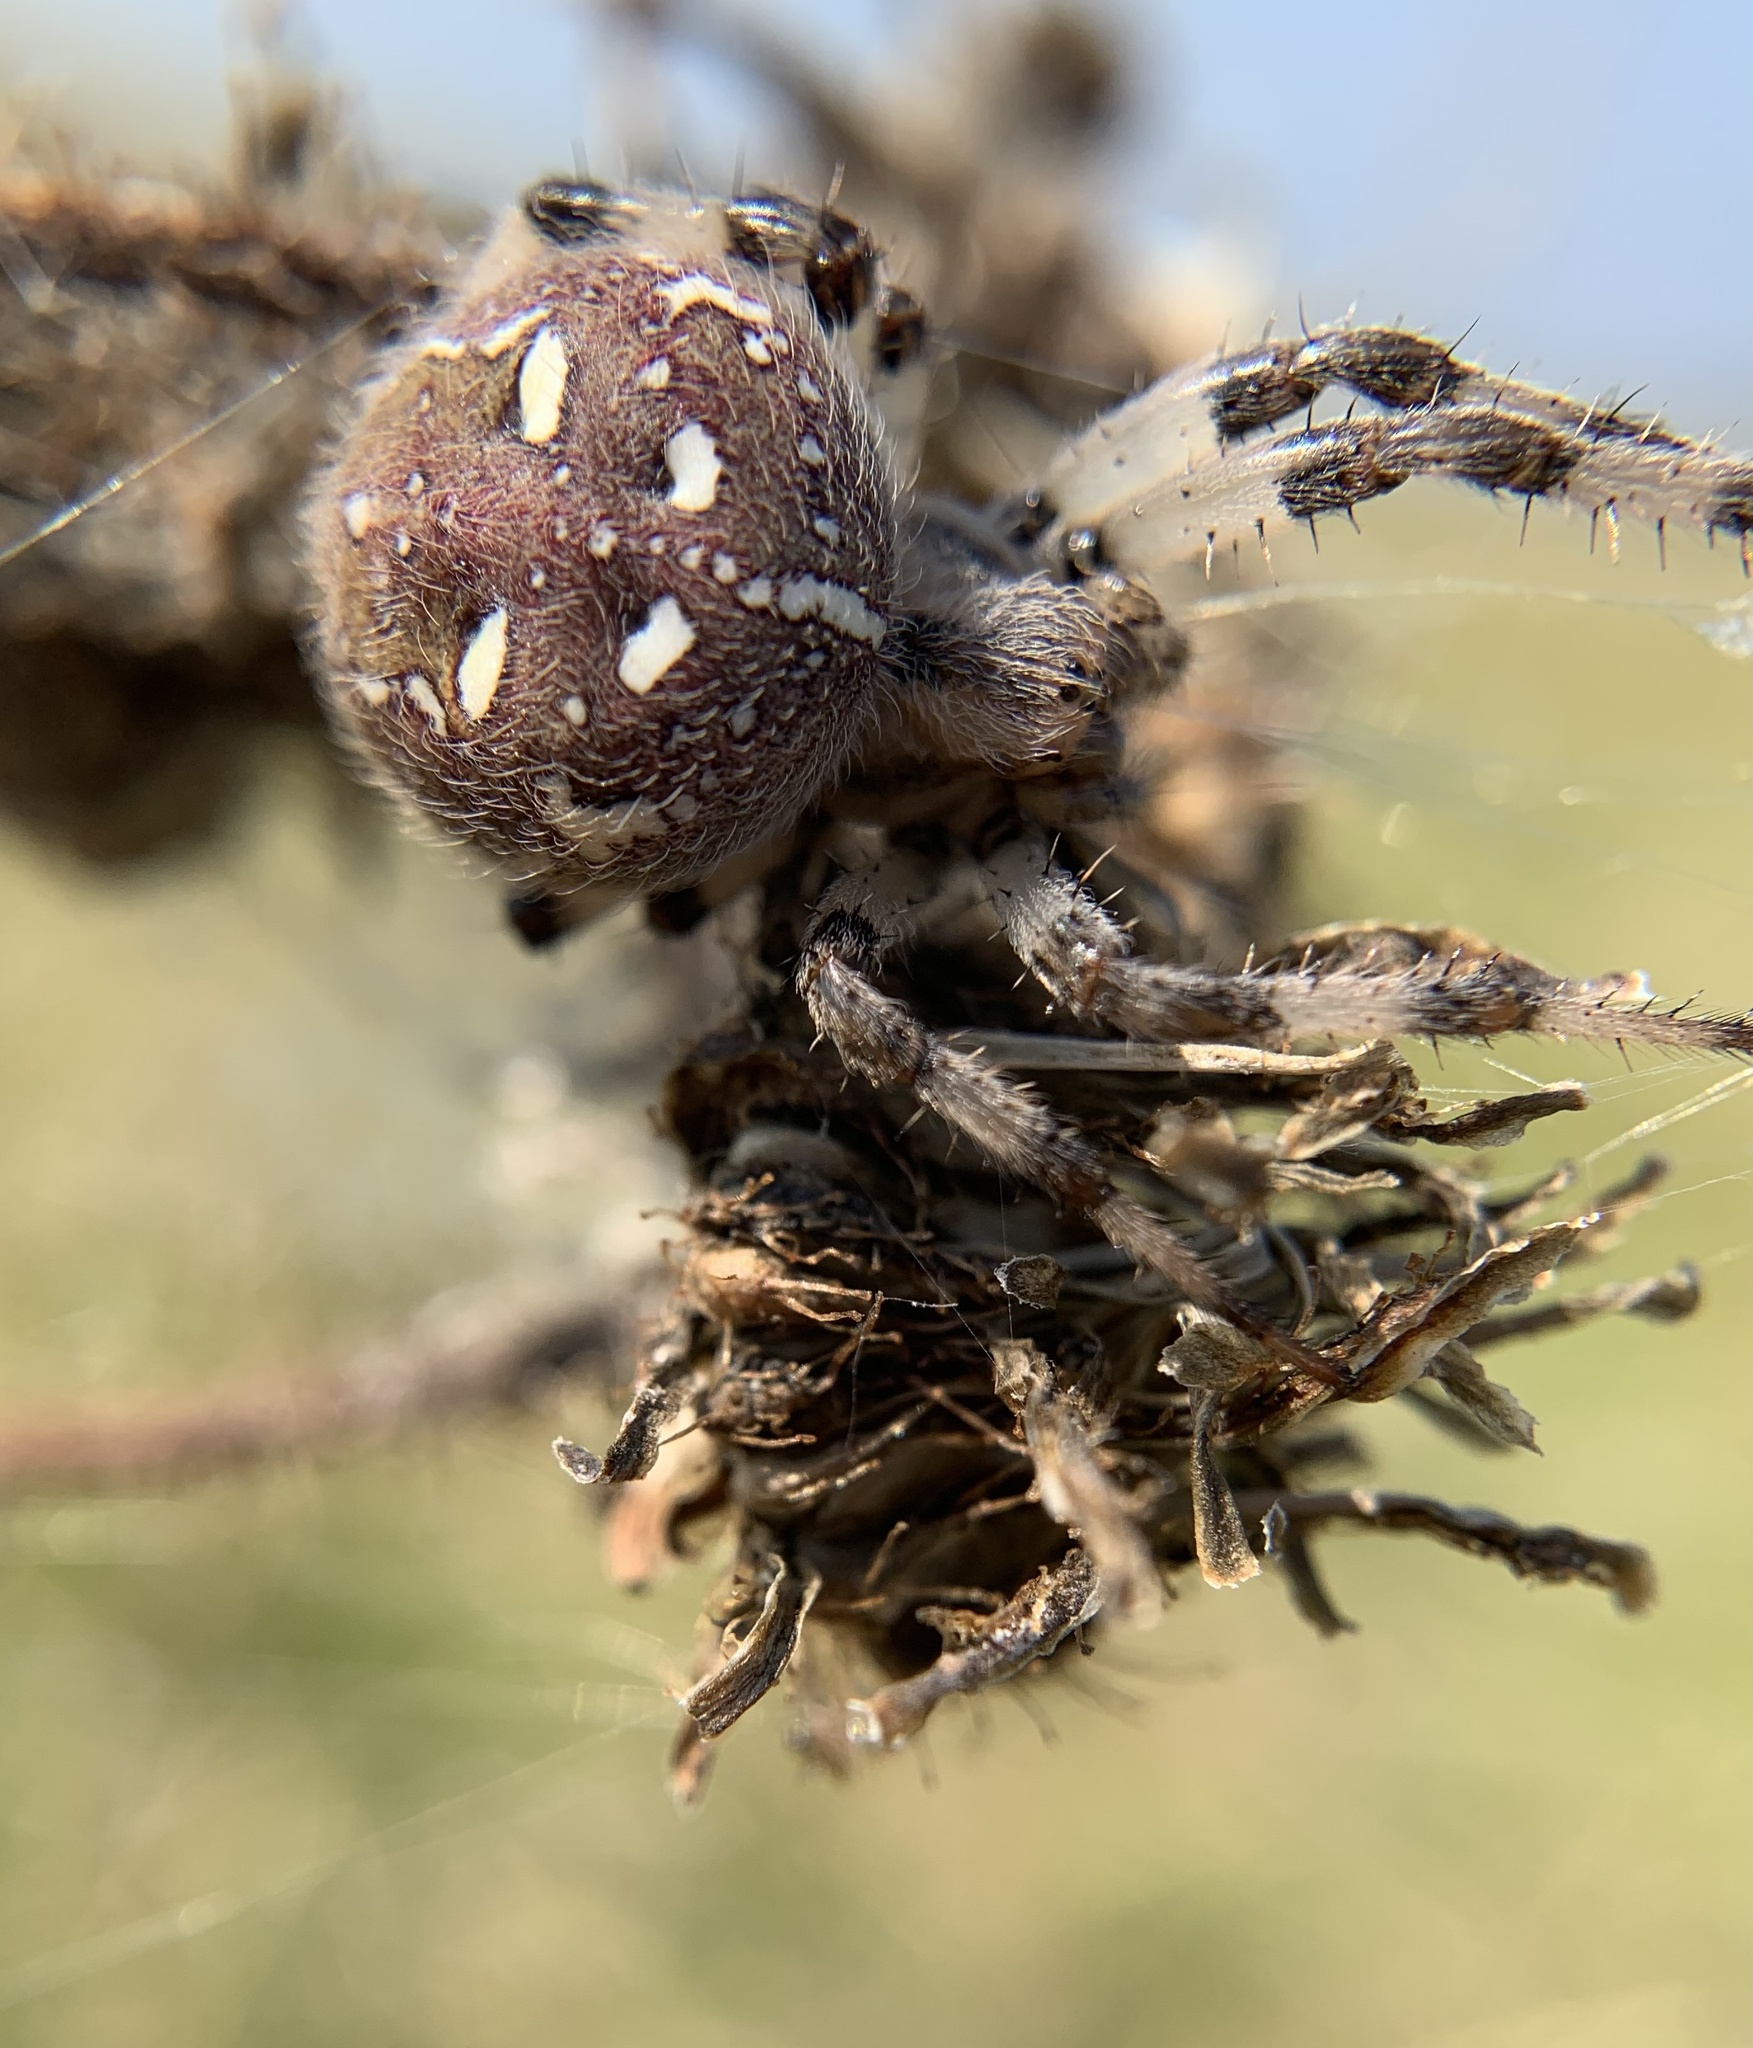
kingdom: Animalia
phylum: Arthropoda
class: Arachnida
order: Araneae
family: Araneidae
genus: Araneus
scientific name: Araneus quadratus
